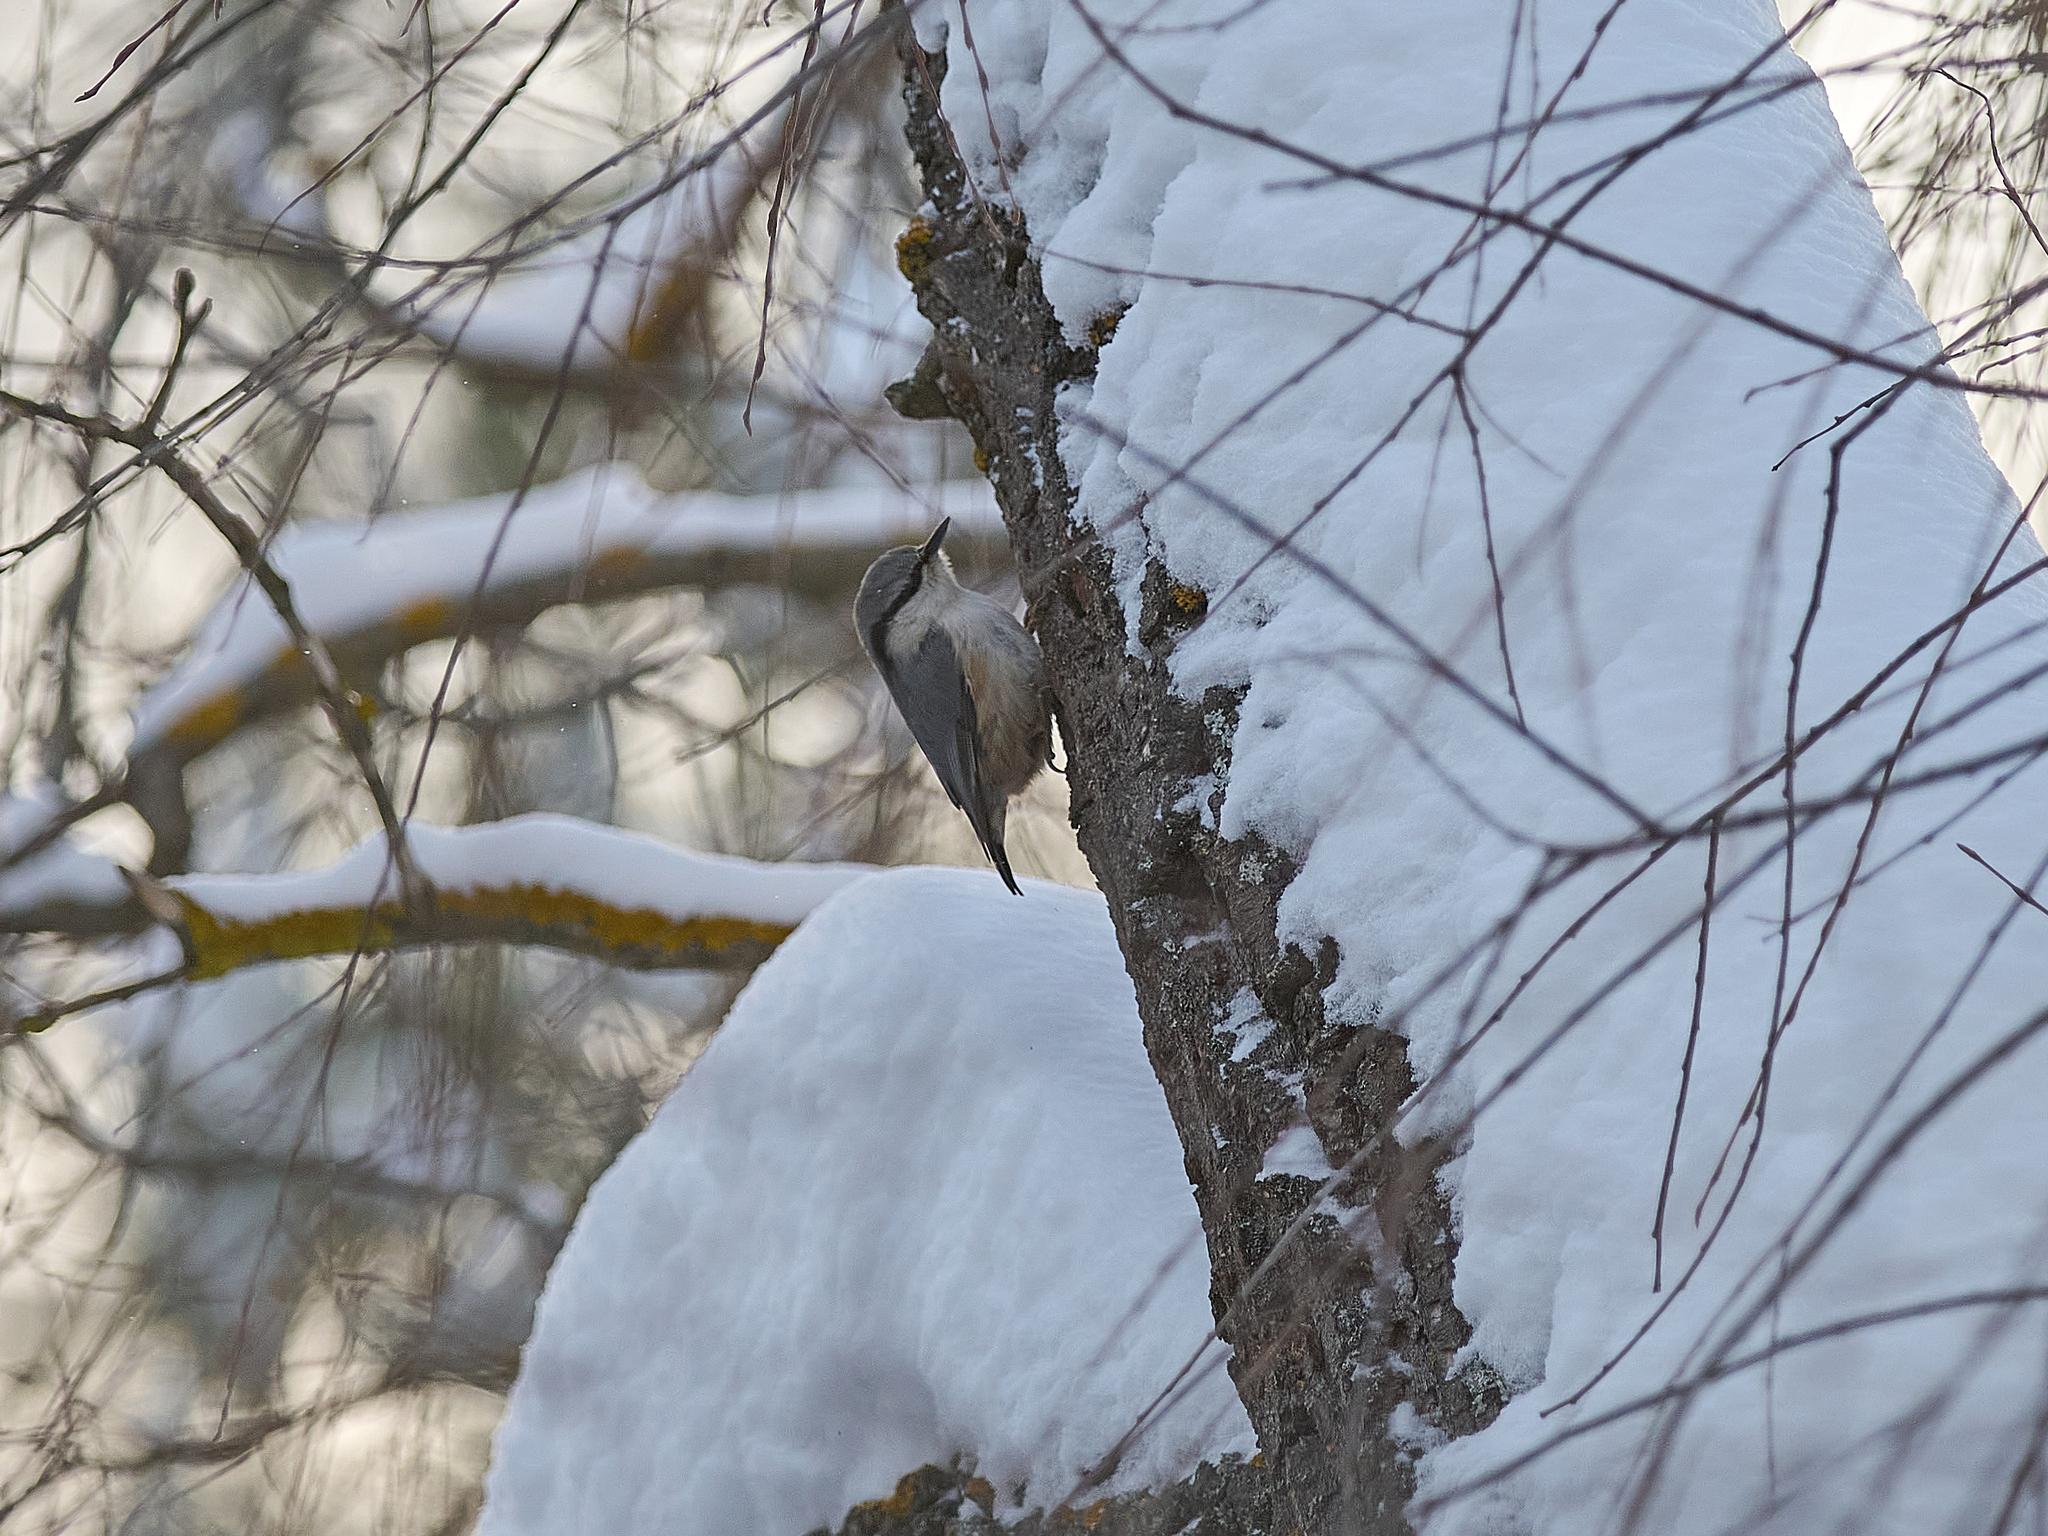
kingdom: Animalia
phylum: Chordata
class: Aves
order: Passeriformes
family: Sittidae
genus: Sitta
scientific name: Sitta europaea
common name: Eurasian nuthatch
